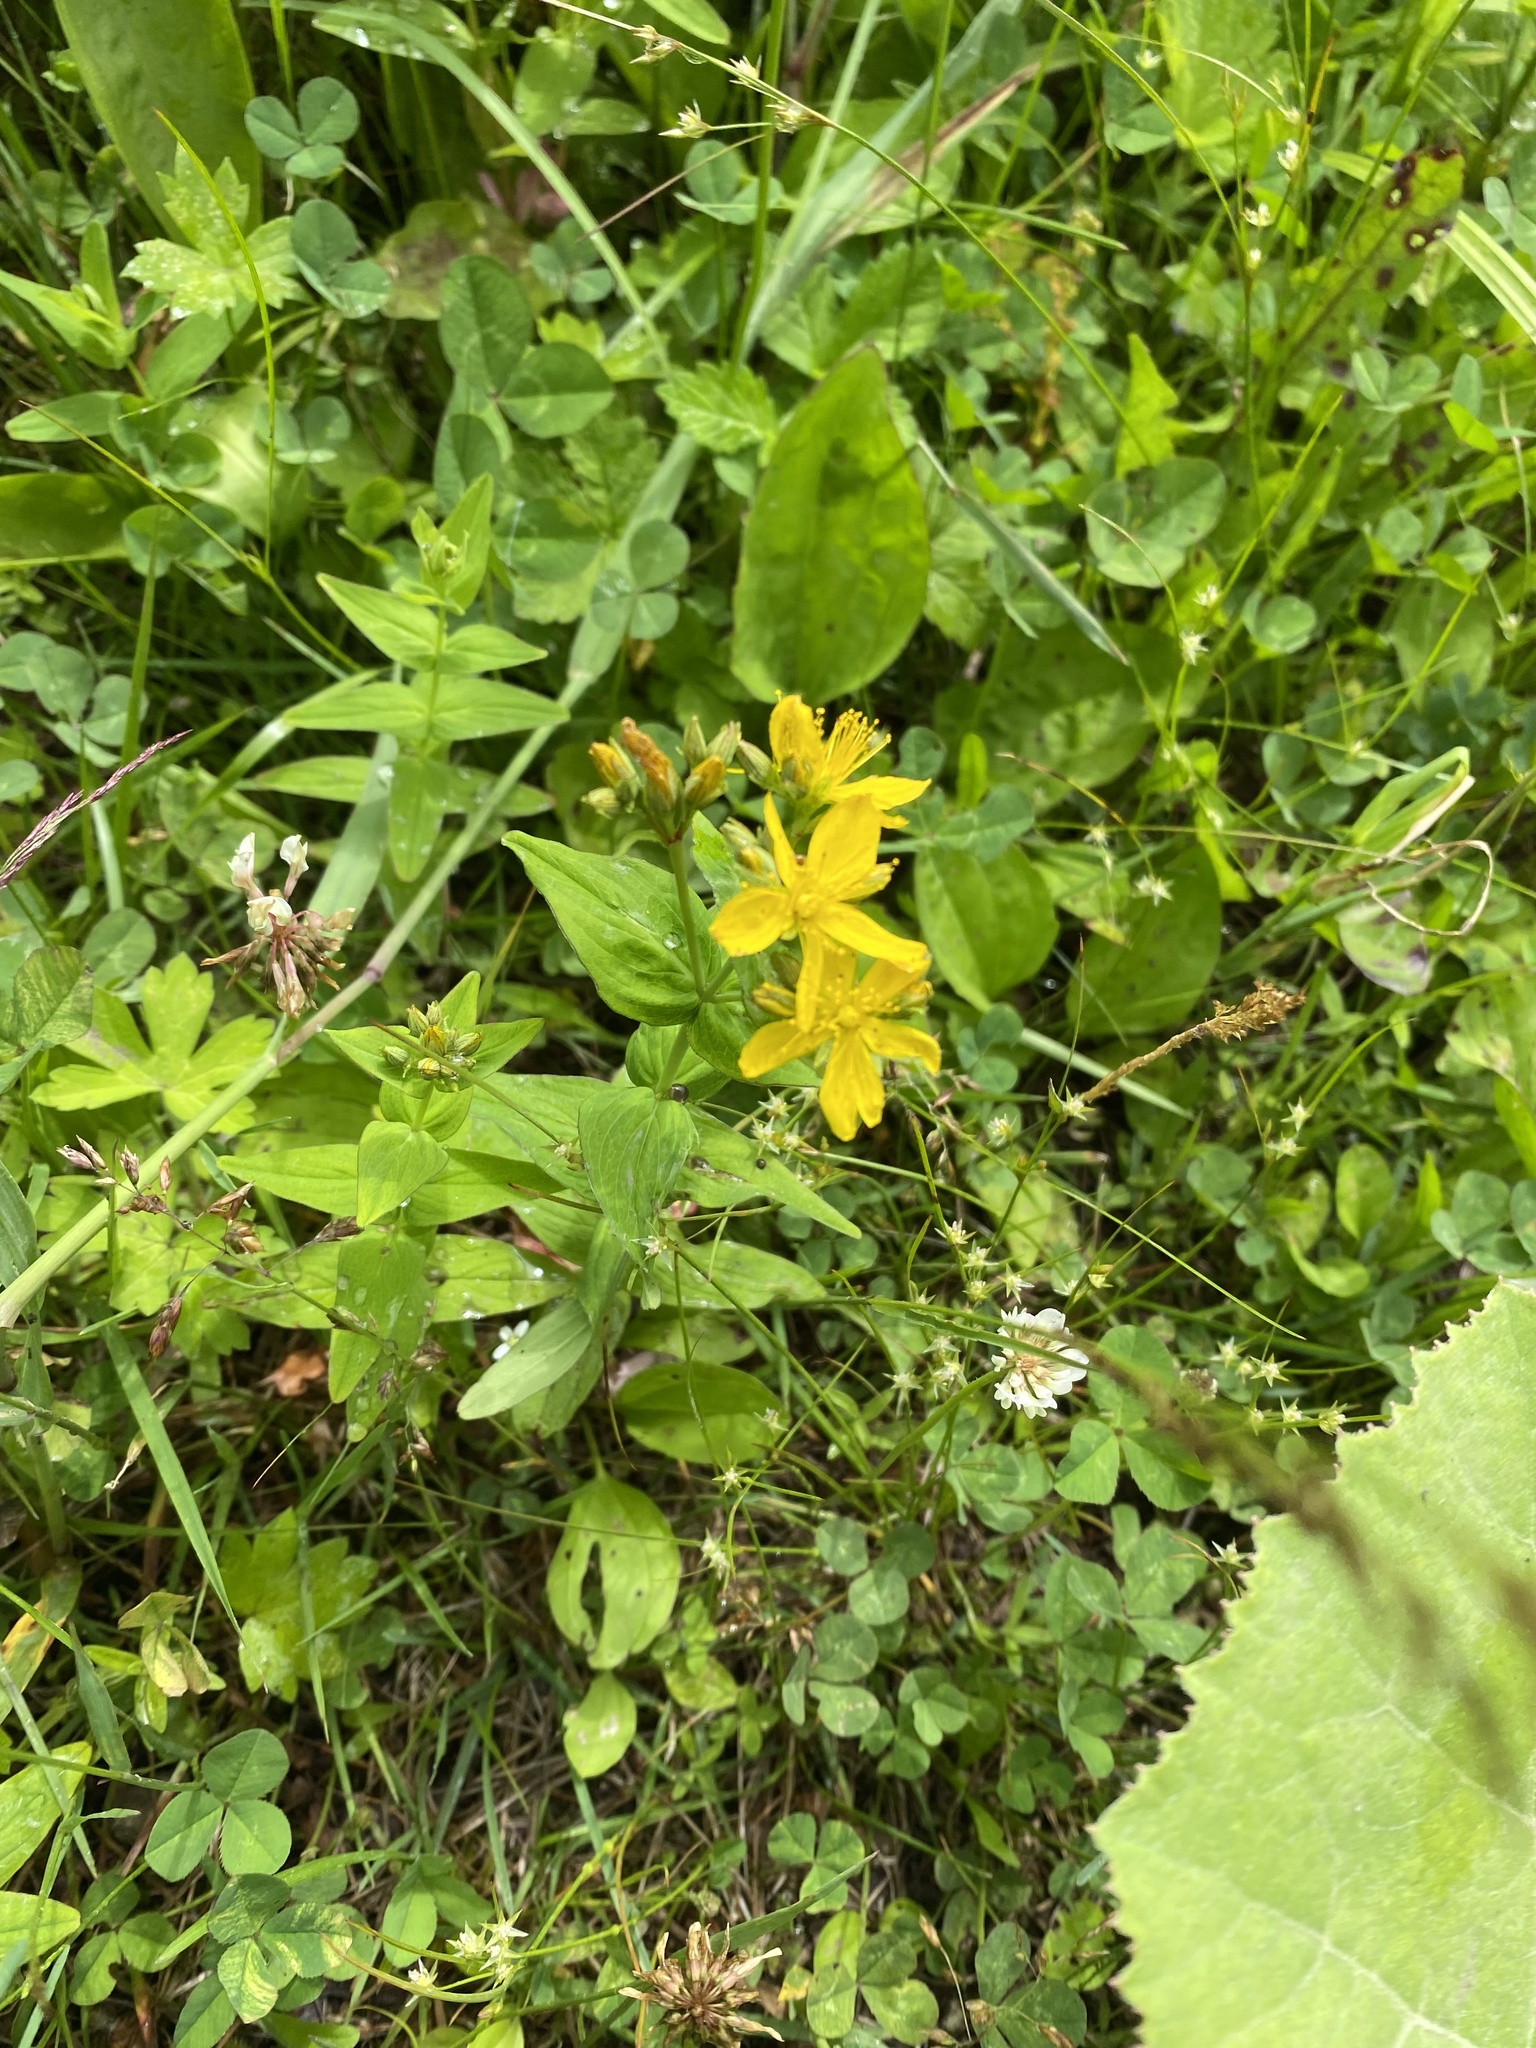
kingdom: Plantae
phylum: Tracheophyta
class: Magnoliopsida
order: Malpighiales
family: Hypericaceae
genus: Hypericum
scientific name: Hypericum kamtschaticum
